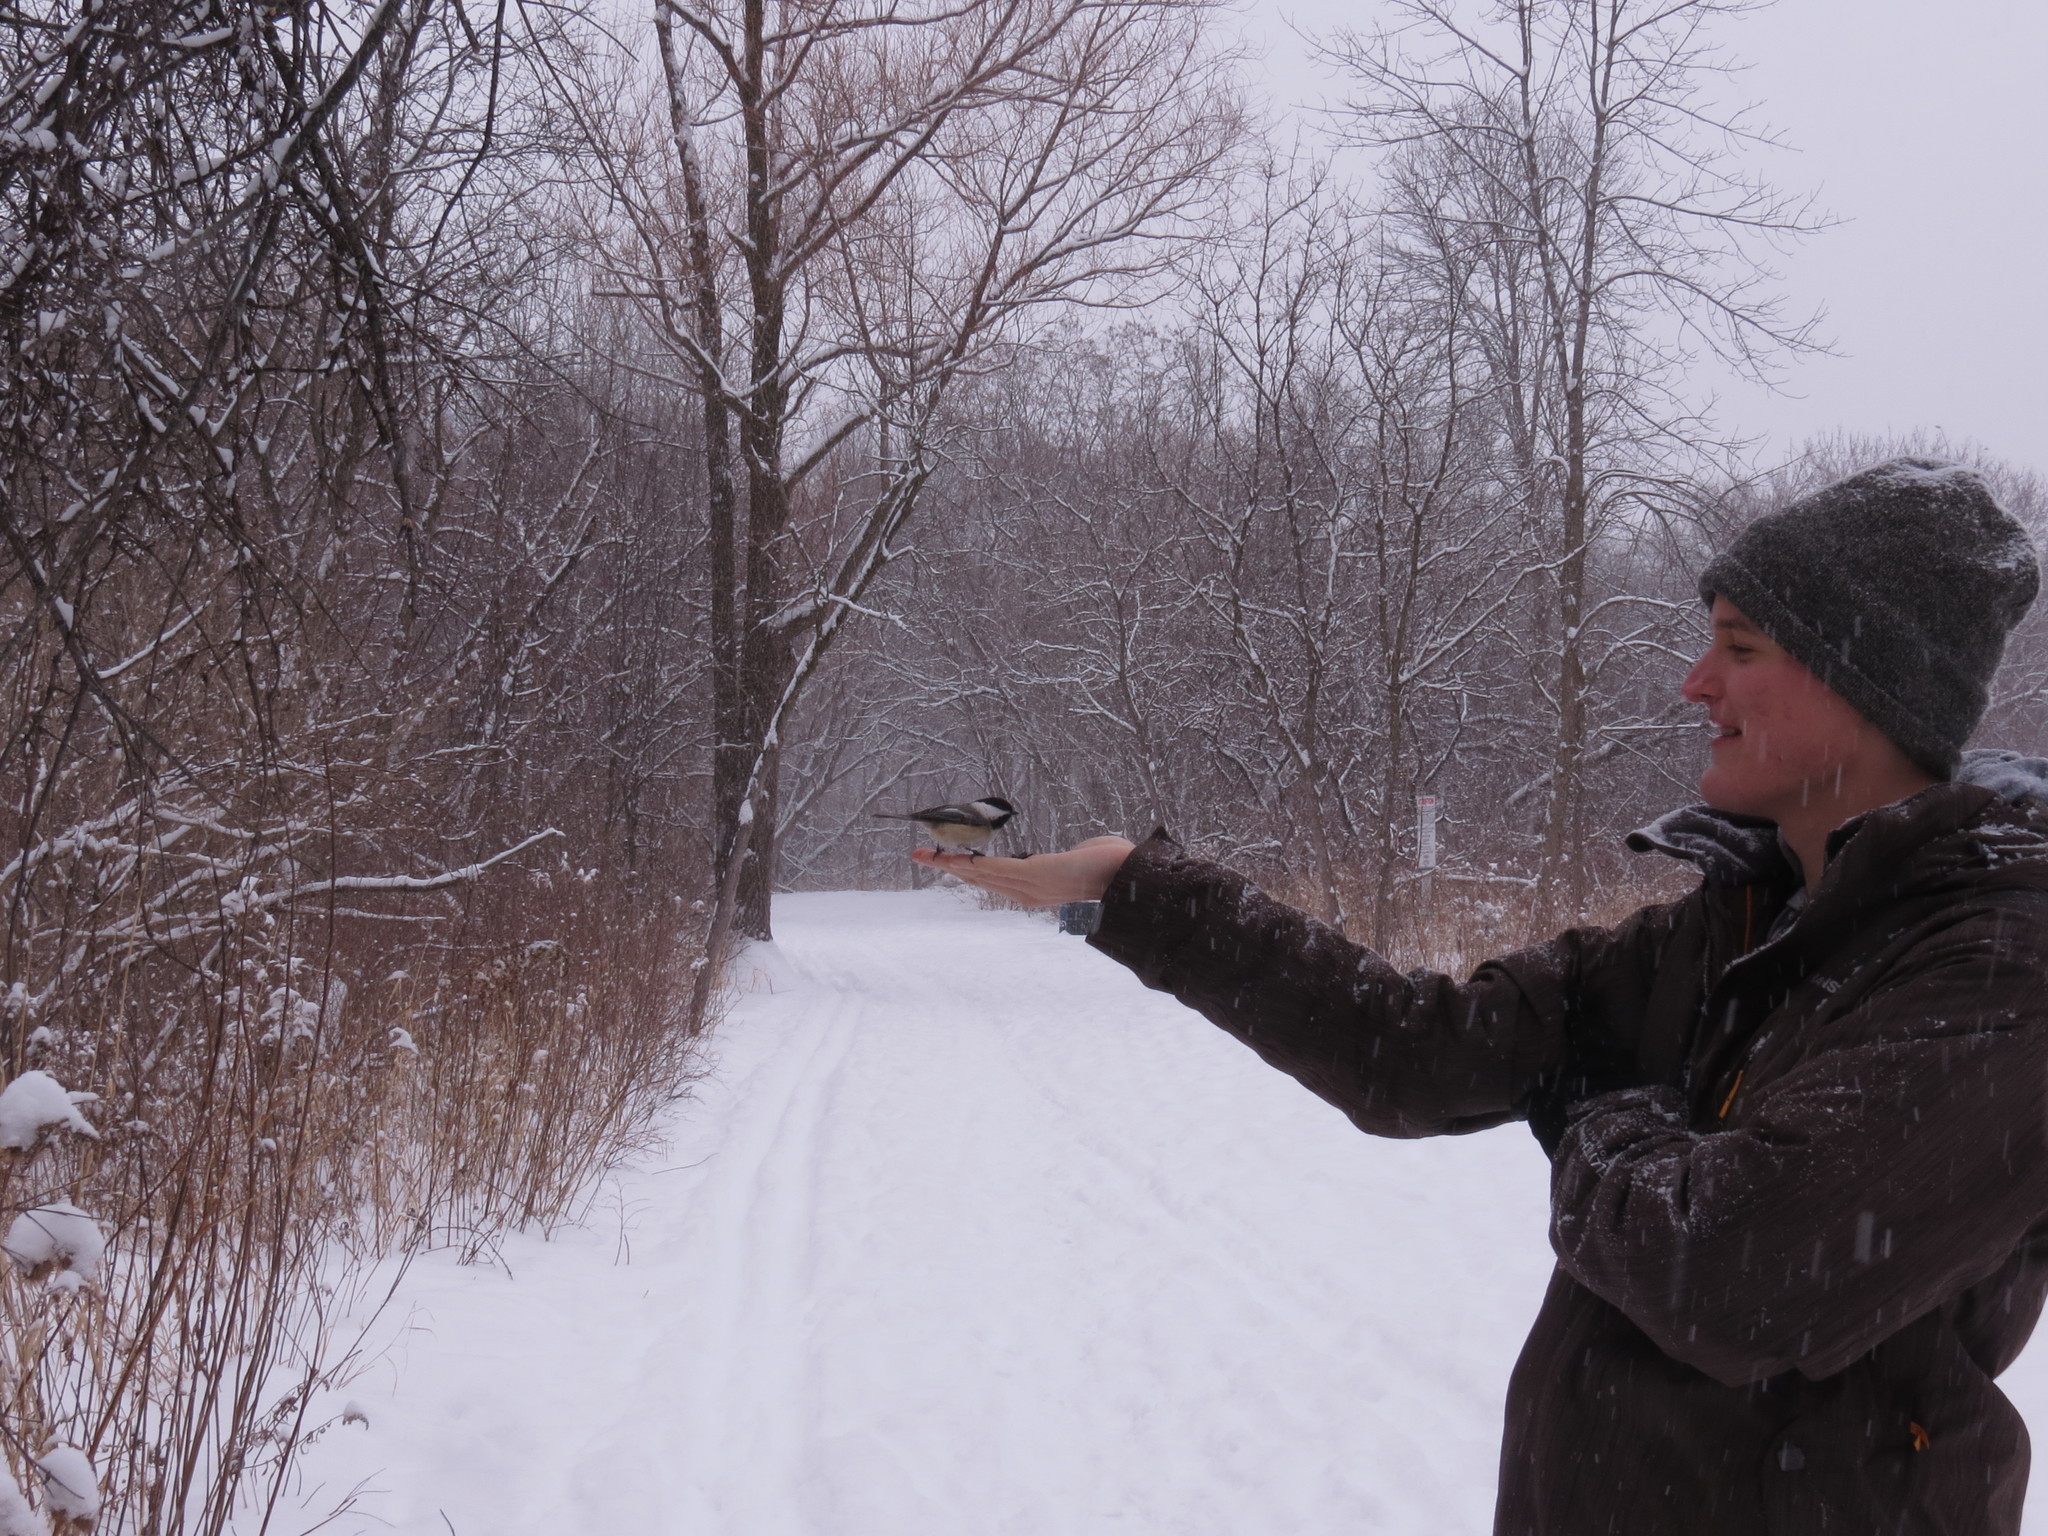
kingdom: Animalia
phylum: Chordata
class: Aves
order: Passeriformes
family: Paridae
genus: Poecile
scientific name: Poecile atricapillus
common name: Black-capped chickadee
